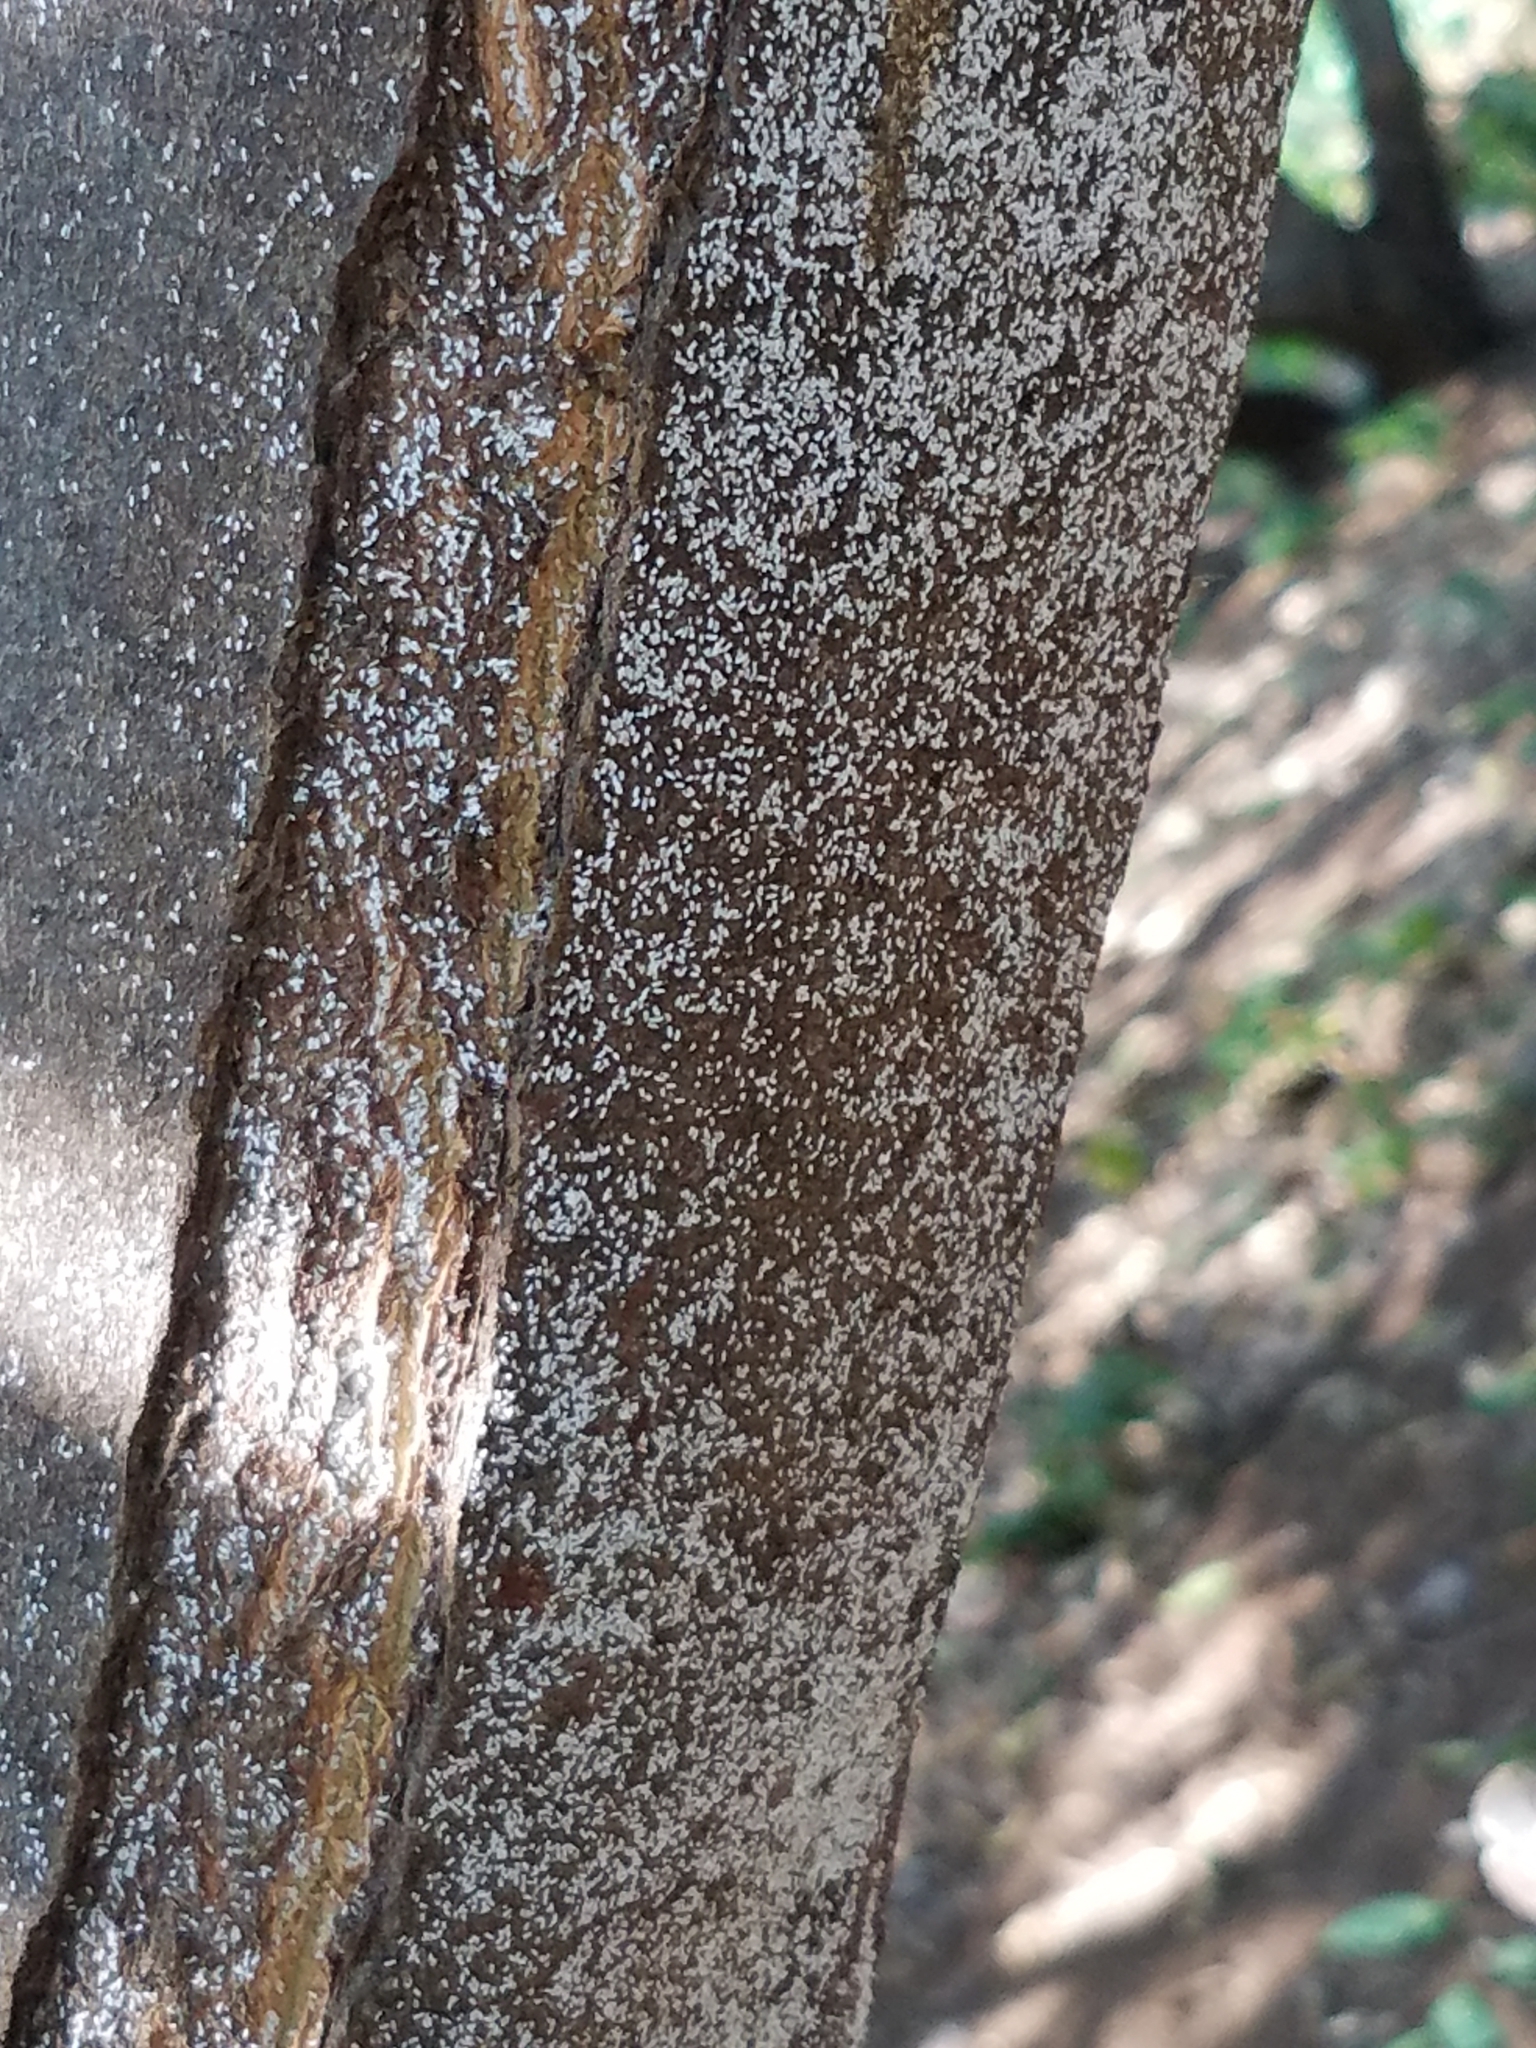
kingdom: Animalia
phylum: Arthropoda
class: Insecta
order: Hemiptera
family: Diaspididae
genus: Unaspis
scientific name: Unaspis citri
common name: Citrus snow scale
